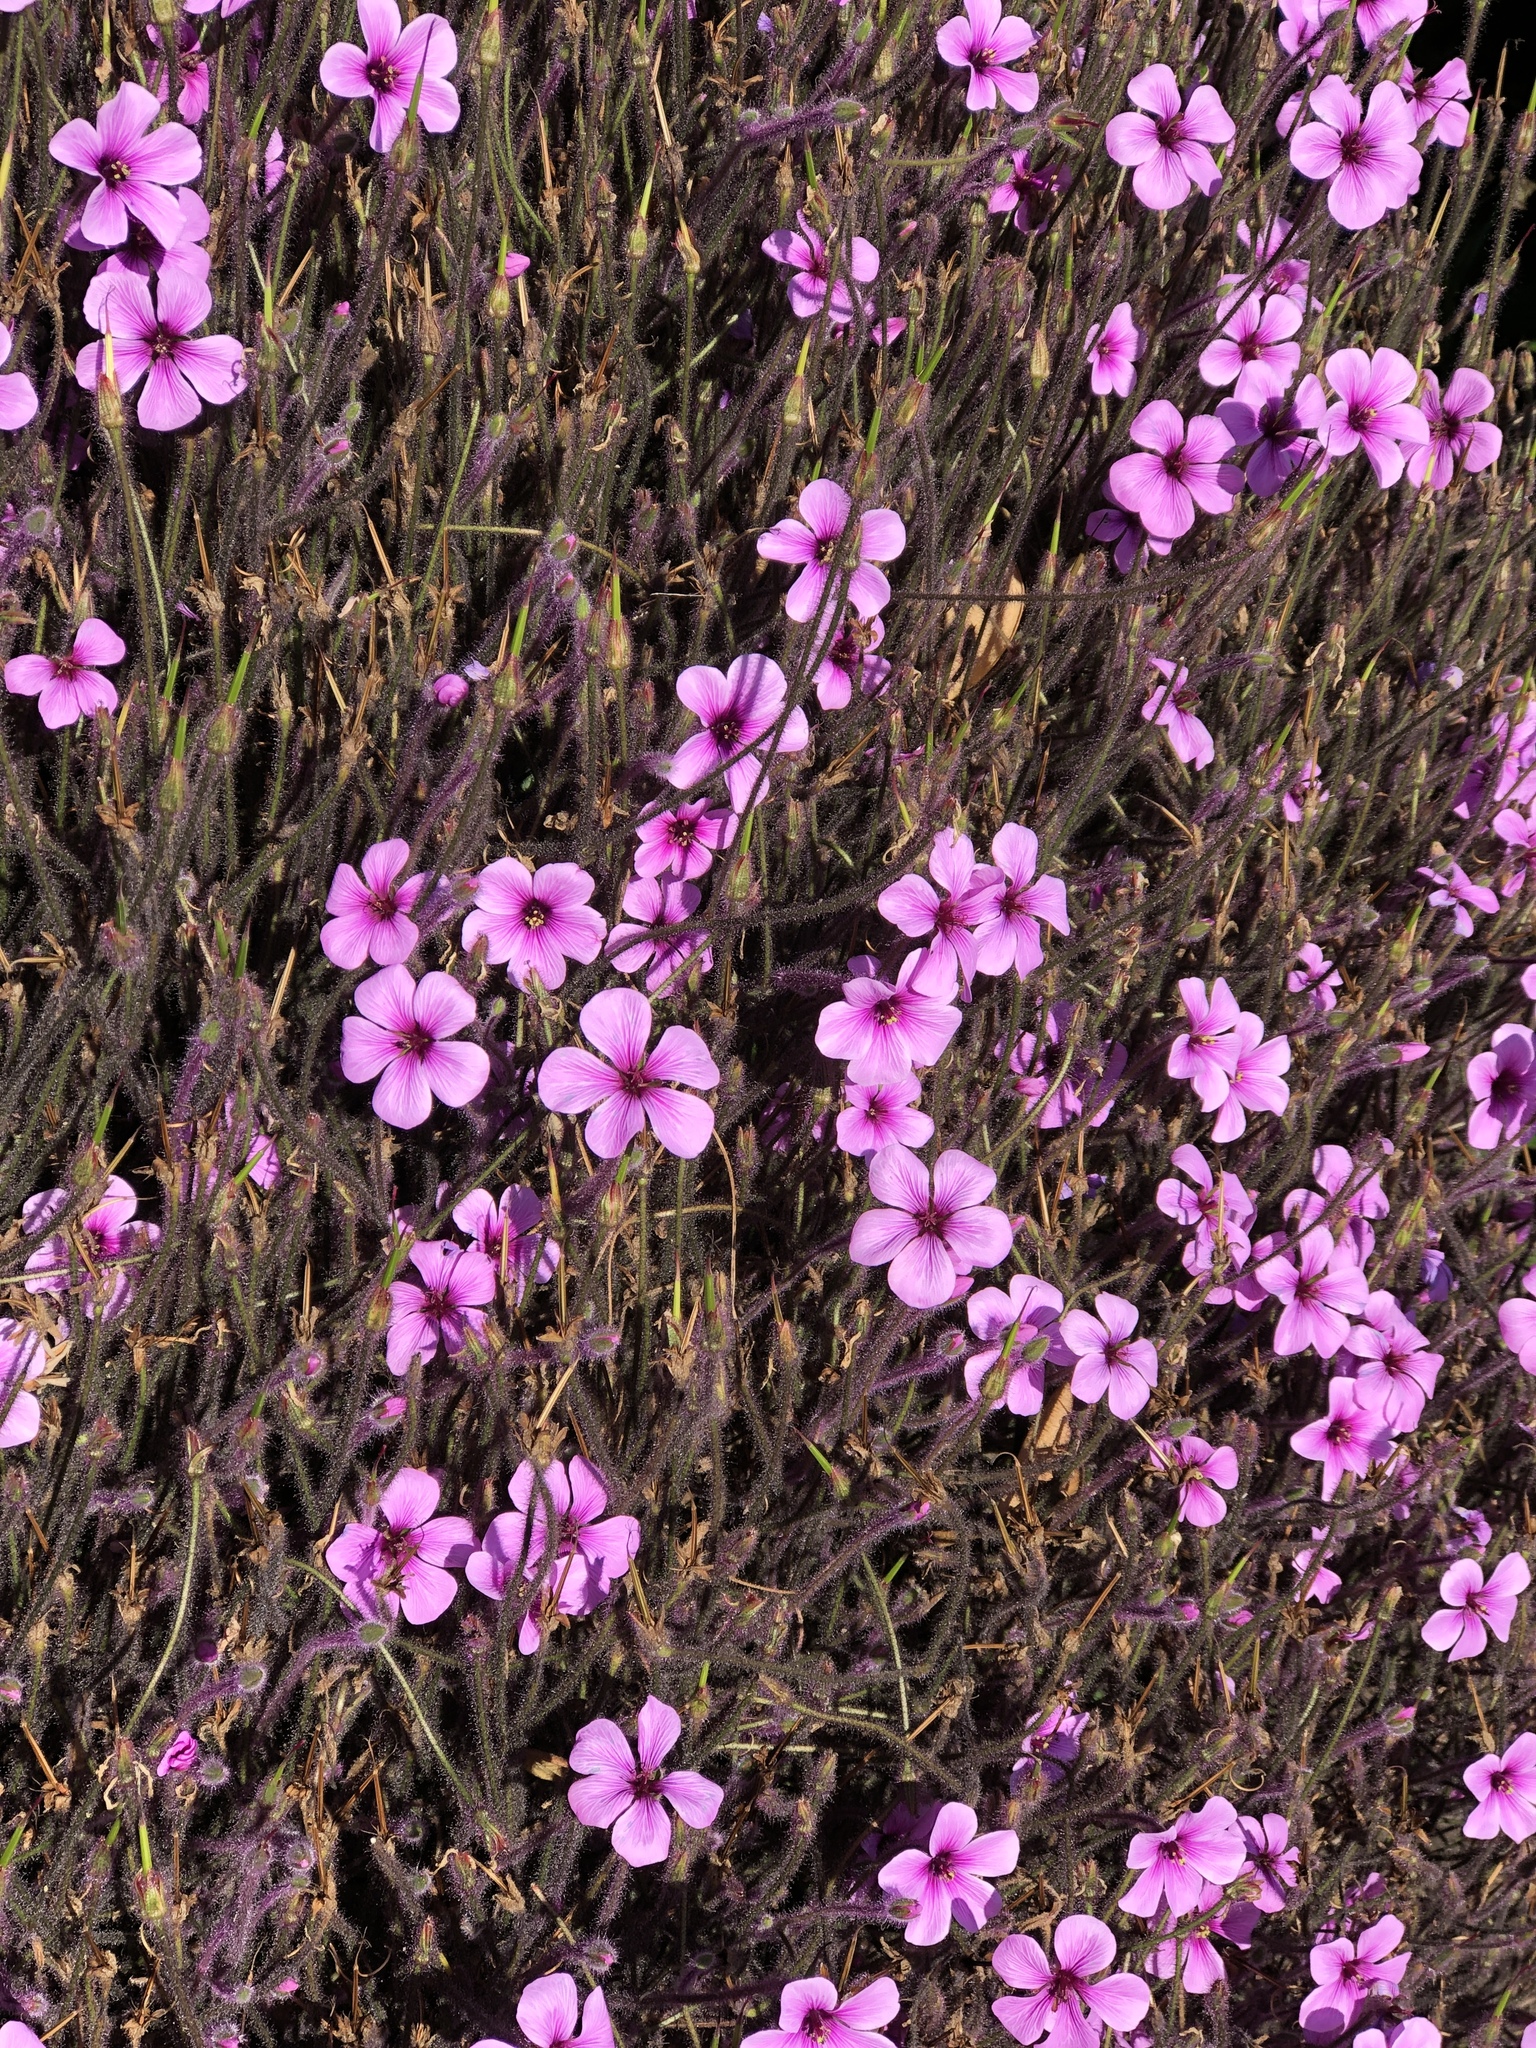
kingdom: Plantae
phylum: Tracheophyta
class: Magnoliopsida
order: Geraniales
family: Geraniaceae
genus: Geranium
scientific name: Geranium maderense
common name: Giant herb-robert
